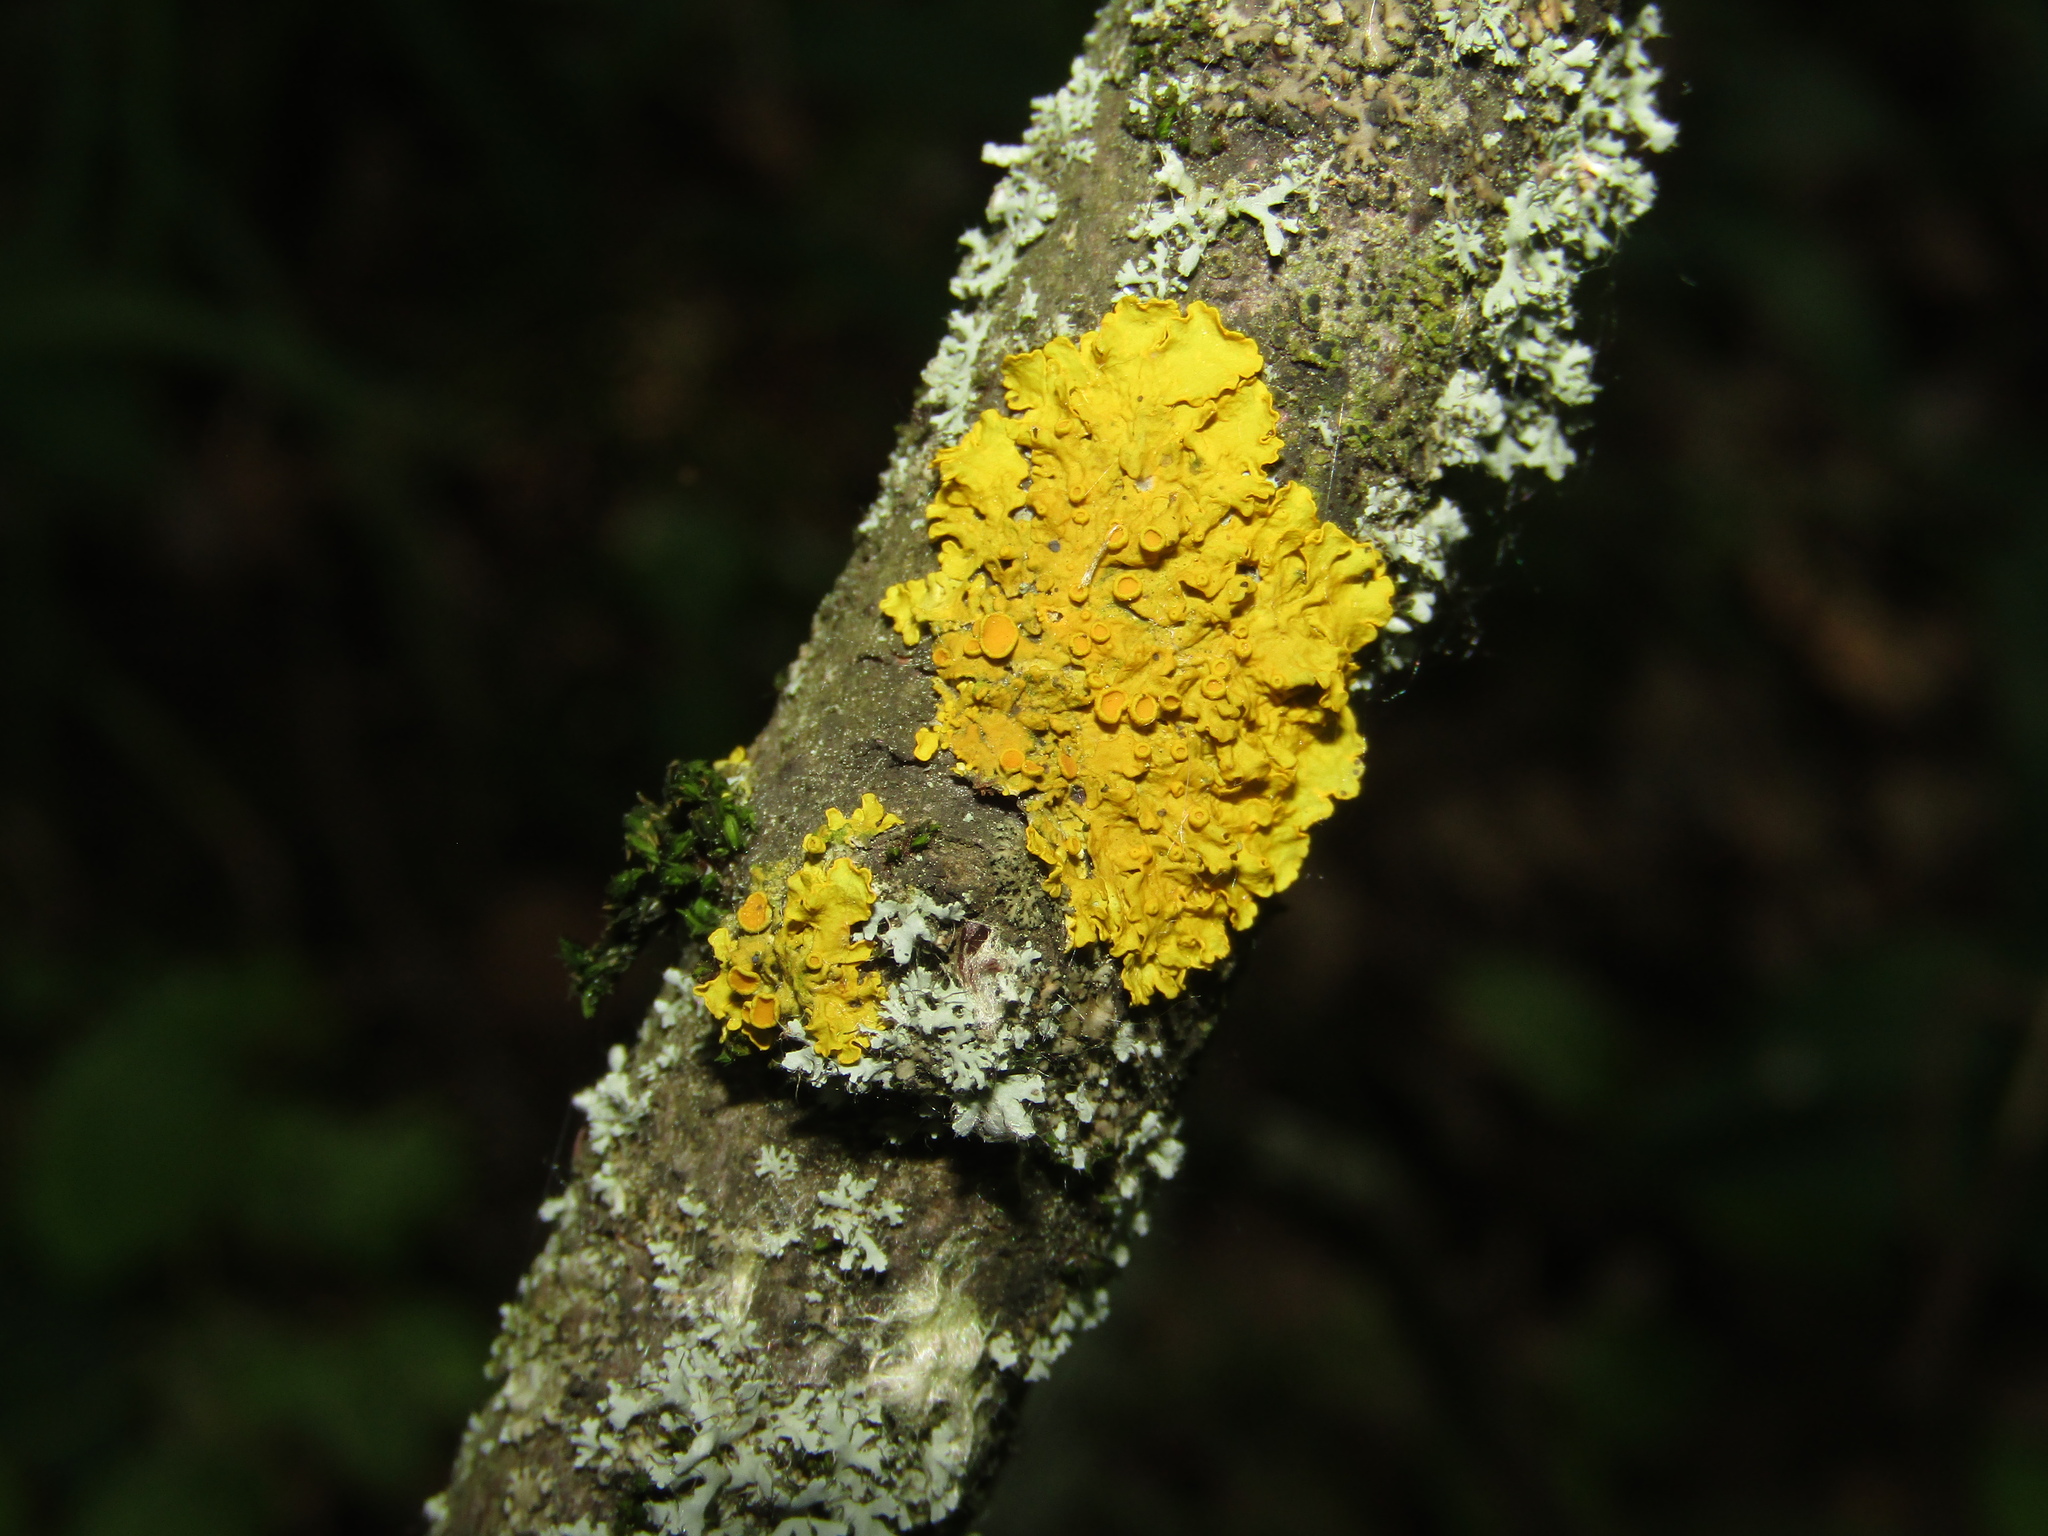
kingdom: Fungi
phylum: Ascomycota
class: Lecanoromycetes
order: Teloschistales
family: Teloschistaceae
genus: Xanthoria
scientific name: Xanthoria parietina
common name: Common orange lichen
